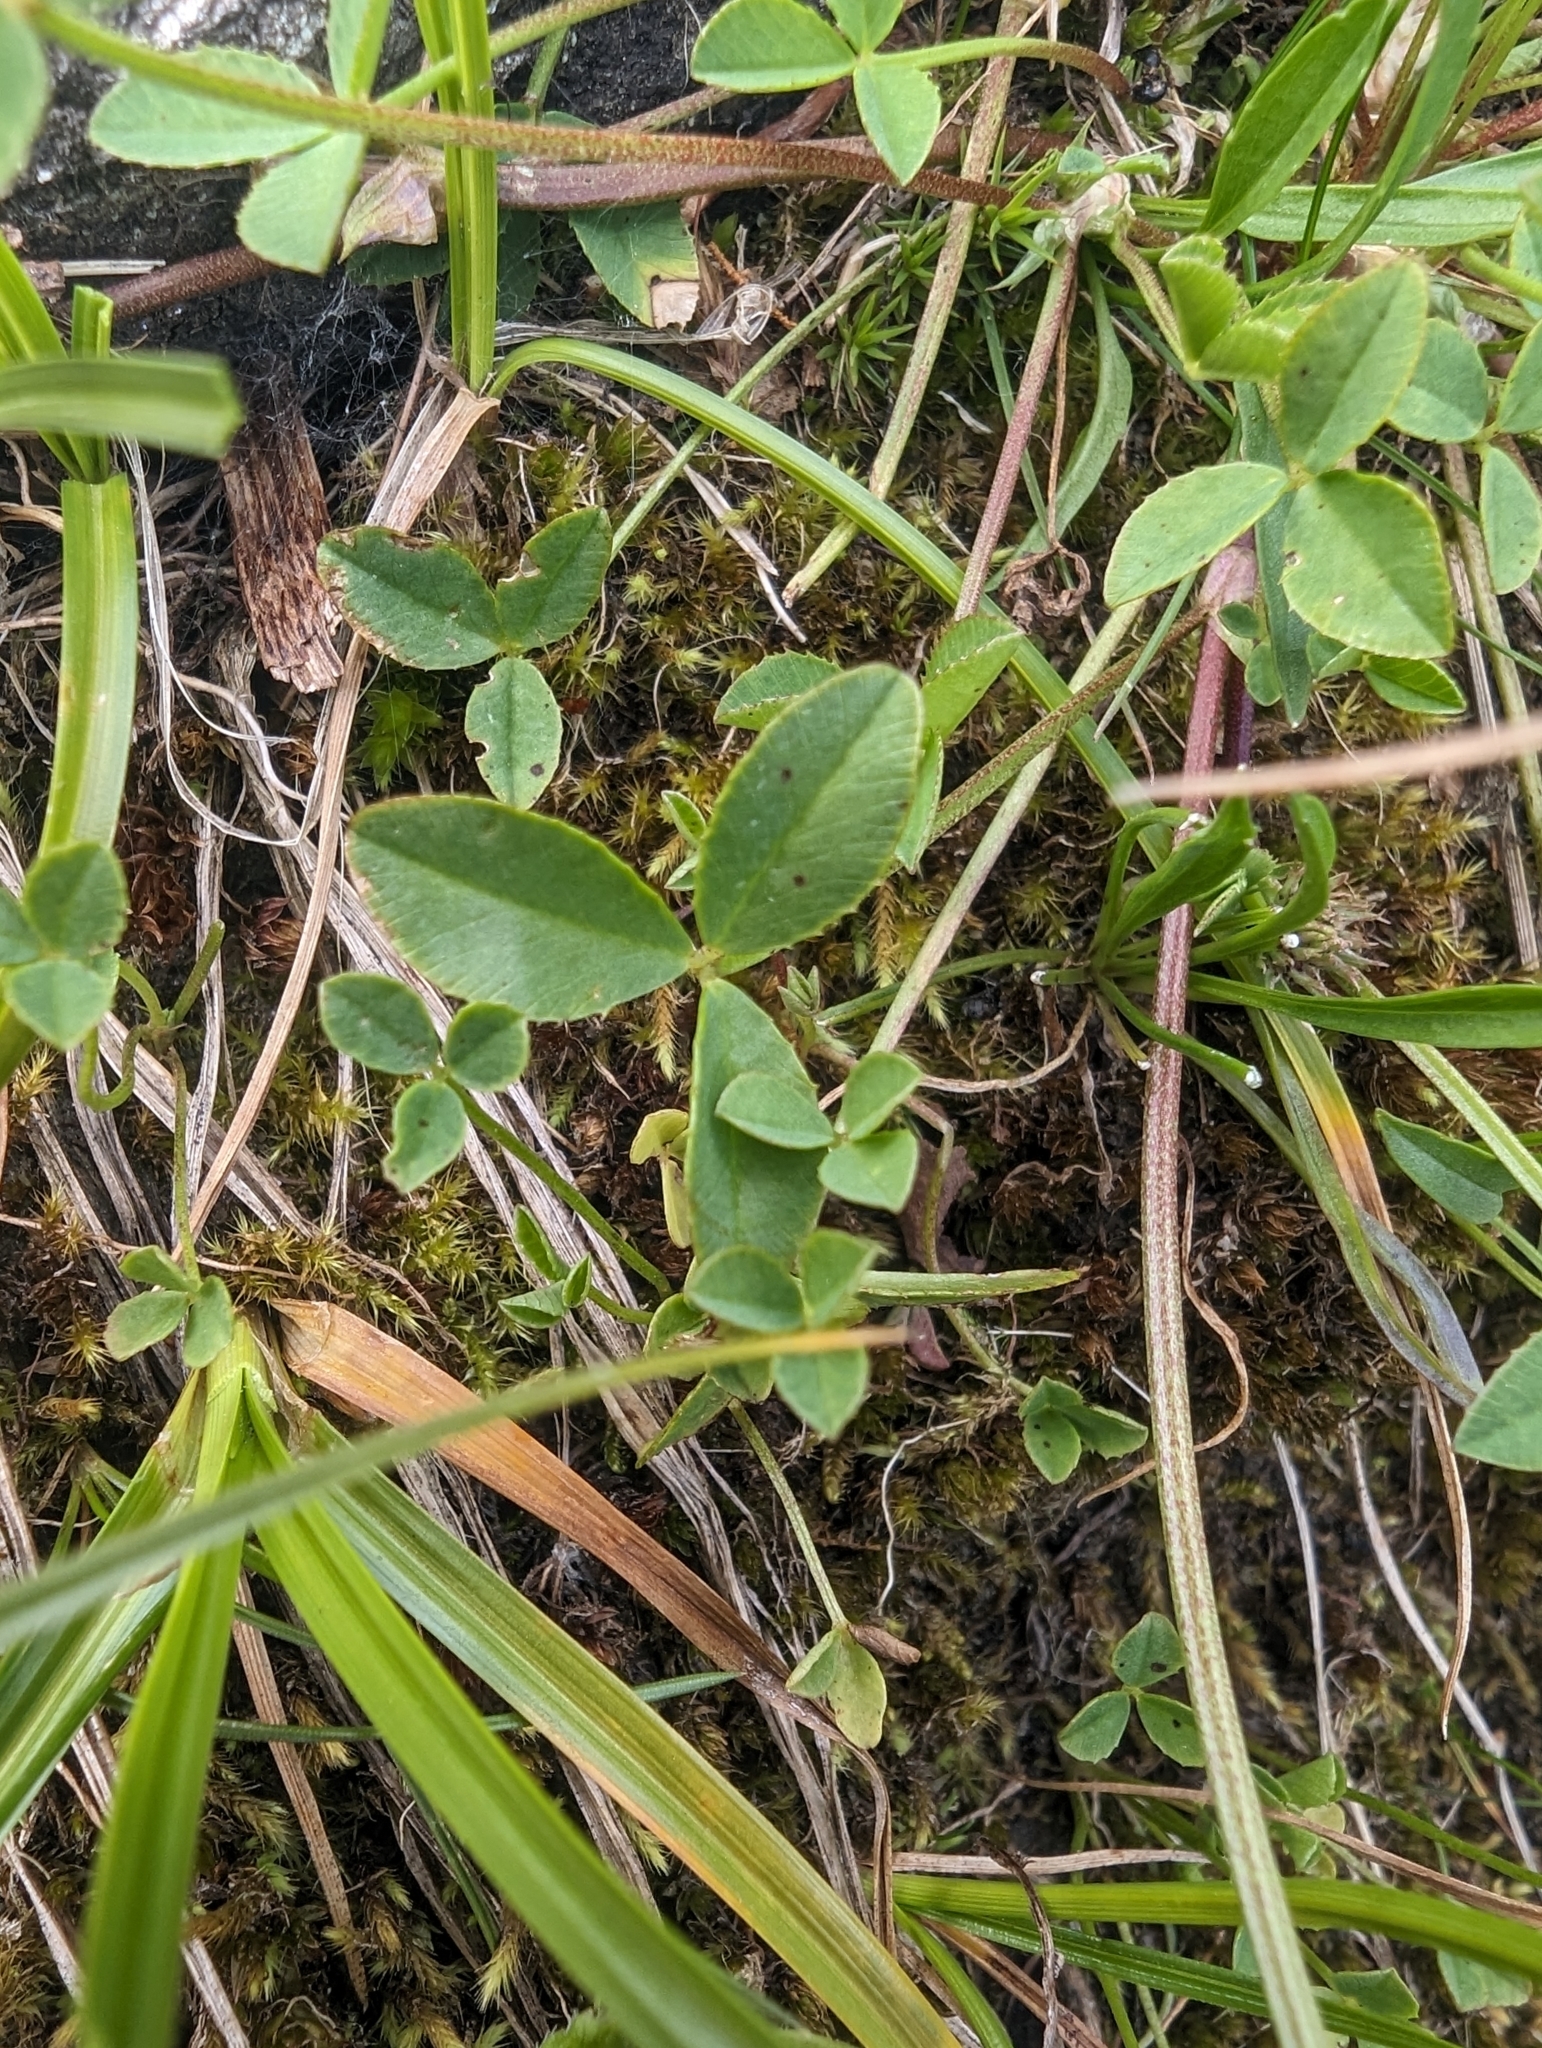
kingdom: Plantae
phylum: Tracheophyta
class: Magnoliopsida
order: Fabales
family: Fabaceae
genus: Trifolium
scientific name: Trifolium pallescens
